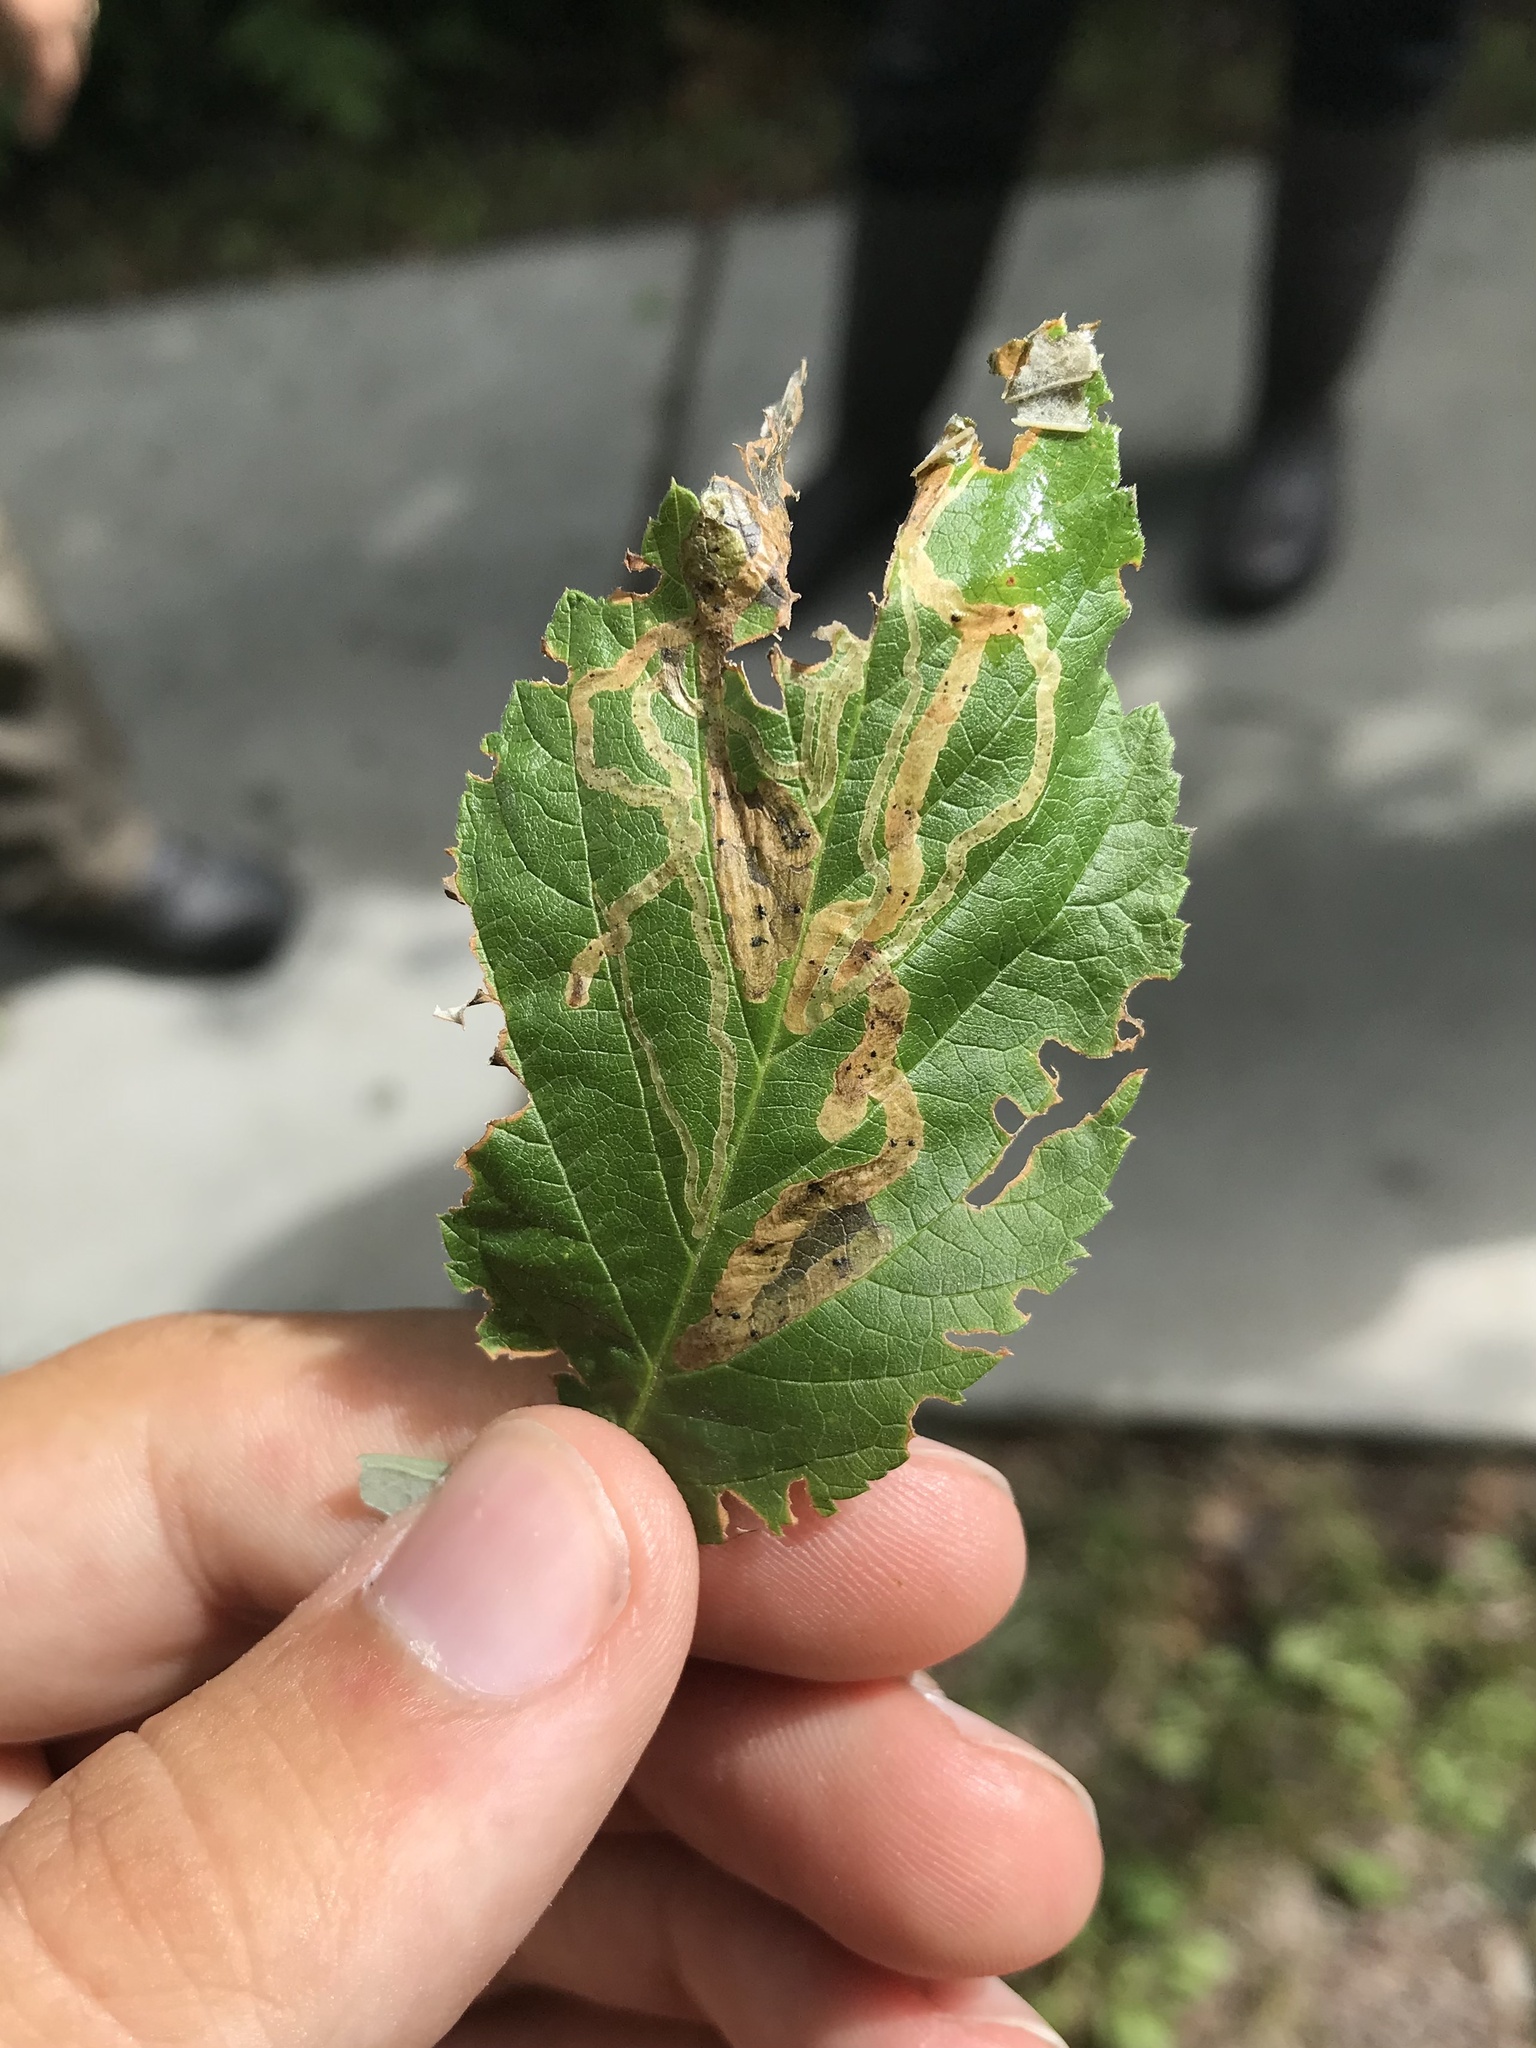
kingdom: Animalia
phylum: Arthropoda
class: Insecta
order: Diptera
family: Agromyzidae
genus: Agromyza
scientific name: Agromyza vockerothi
